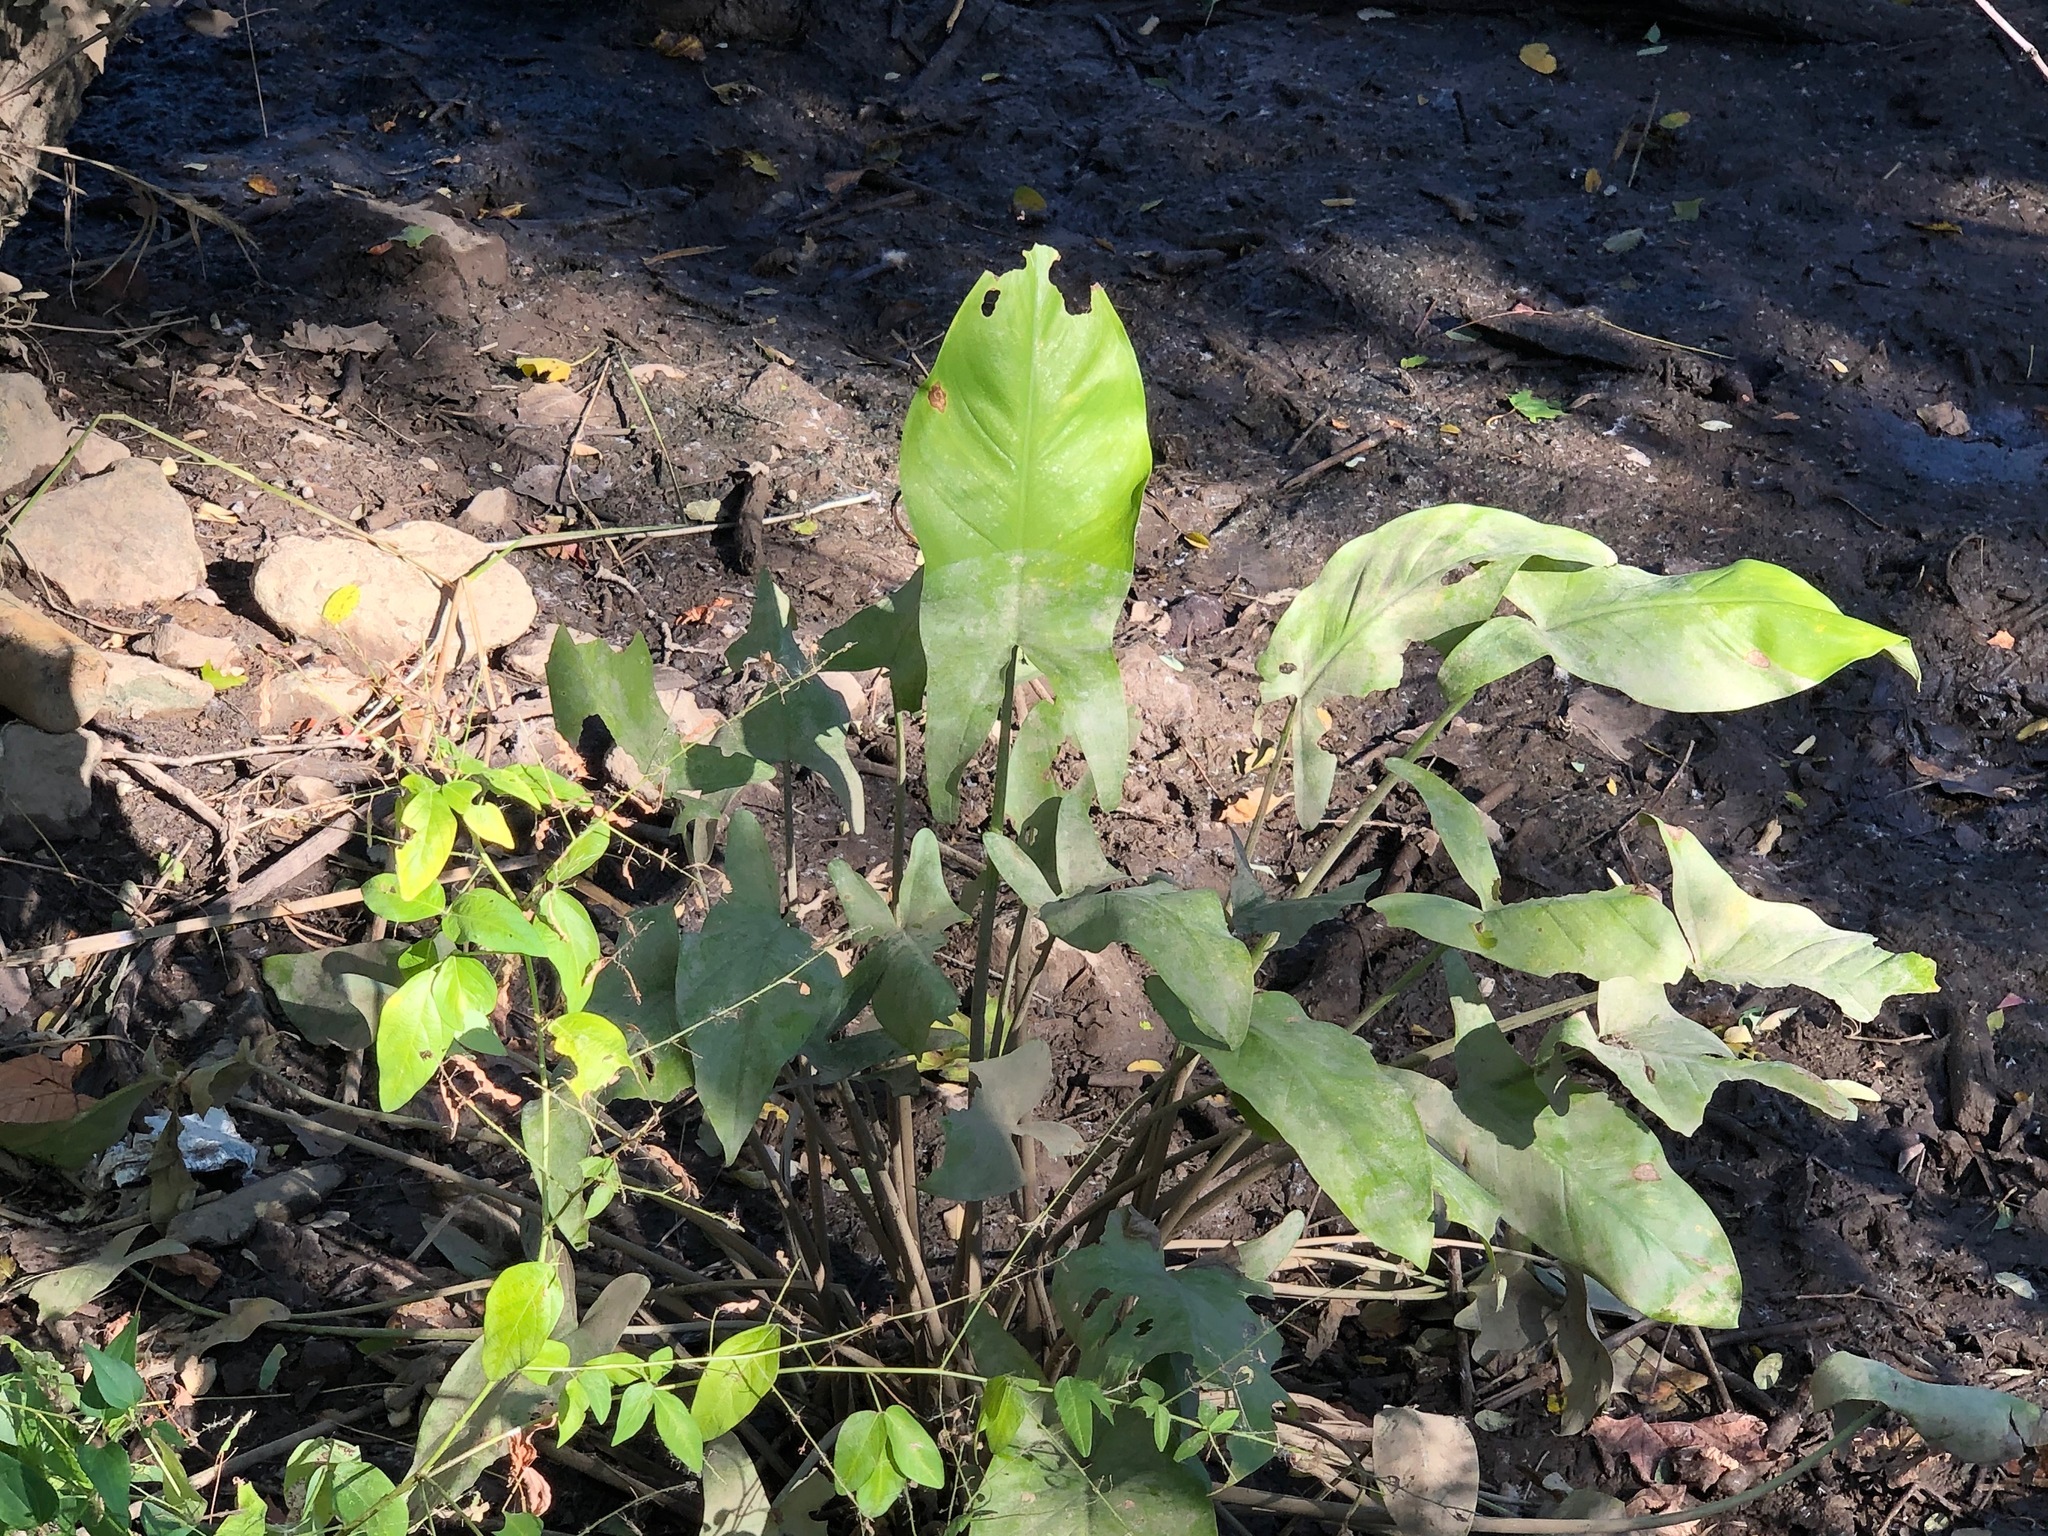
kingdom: Plantae
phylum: Tracheophyta
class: Liliopsida
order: Alismatales
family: Araceae
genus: Peltandra
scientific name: Peltandra virginica
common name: Arrow arum
